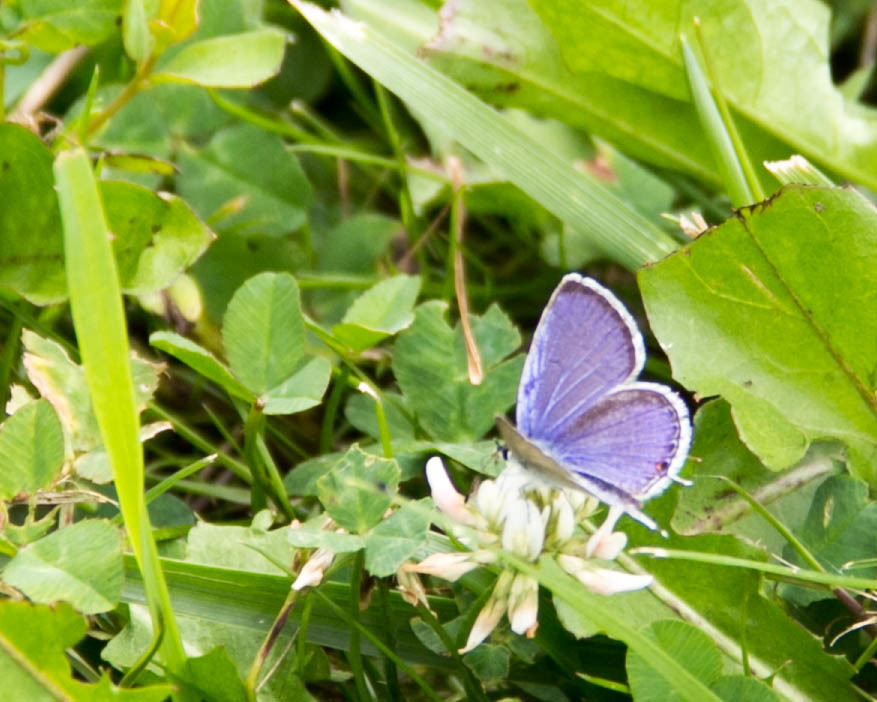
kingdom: Animalia
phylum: Arthropoda
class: Insecta
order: Lepidoptera
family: Lycaenidae
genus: Elkalyce
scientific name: Elkalyce comyntas
